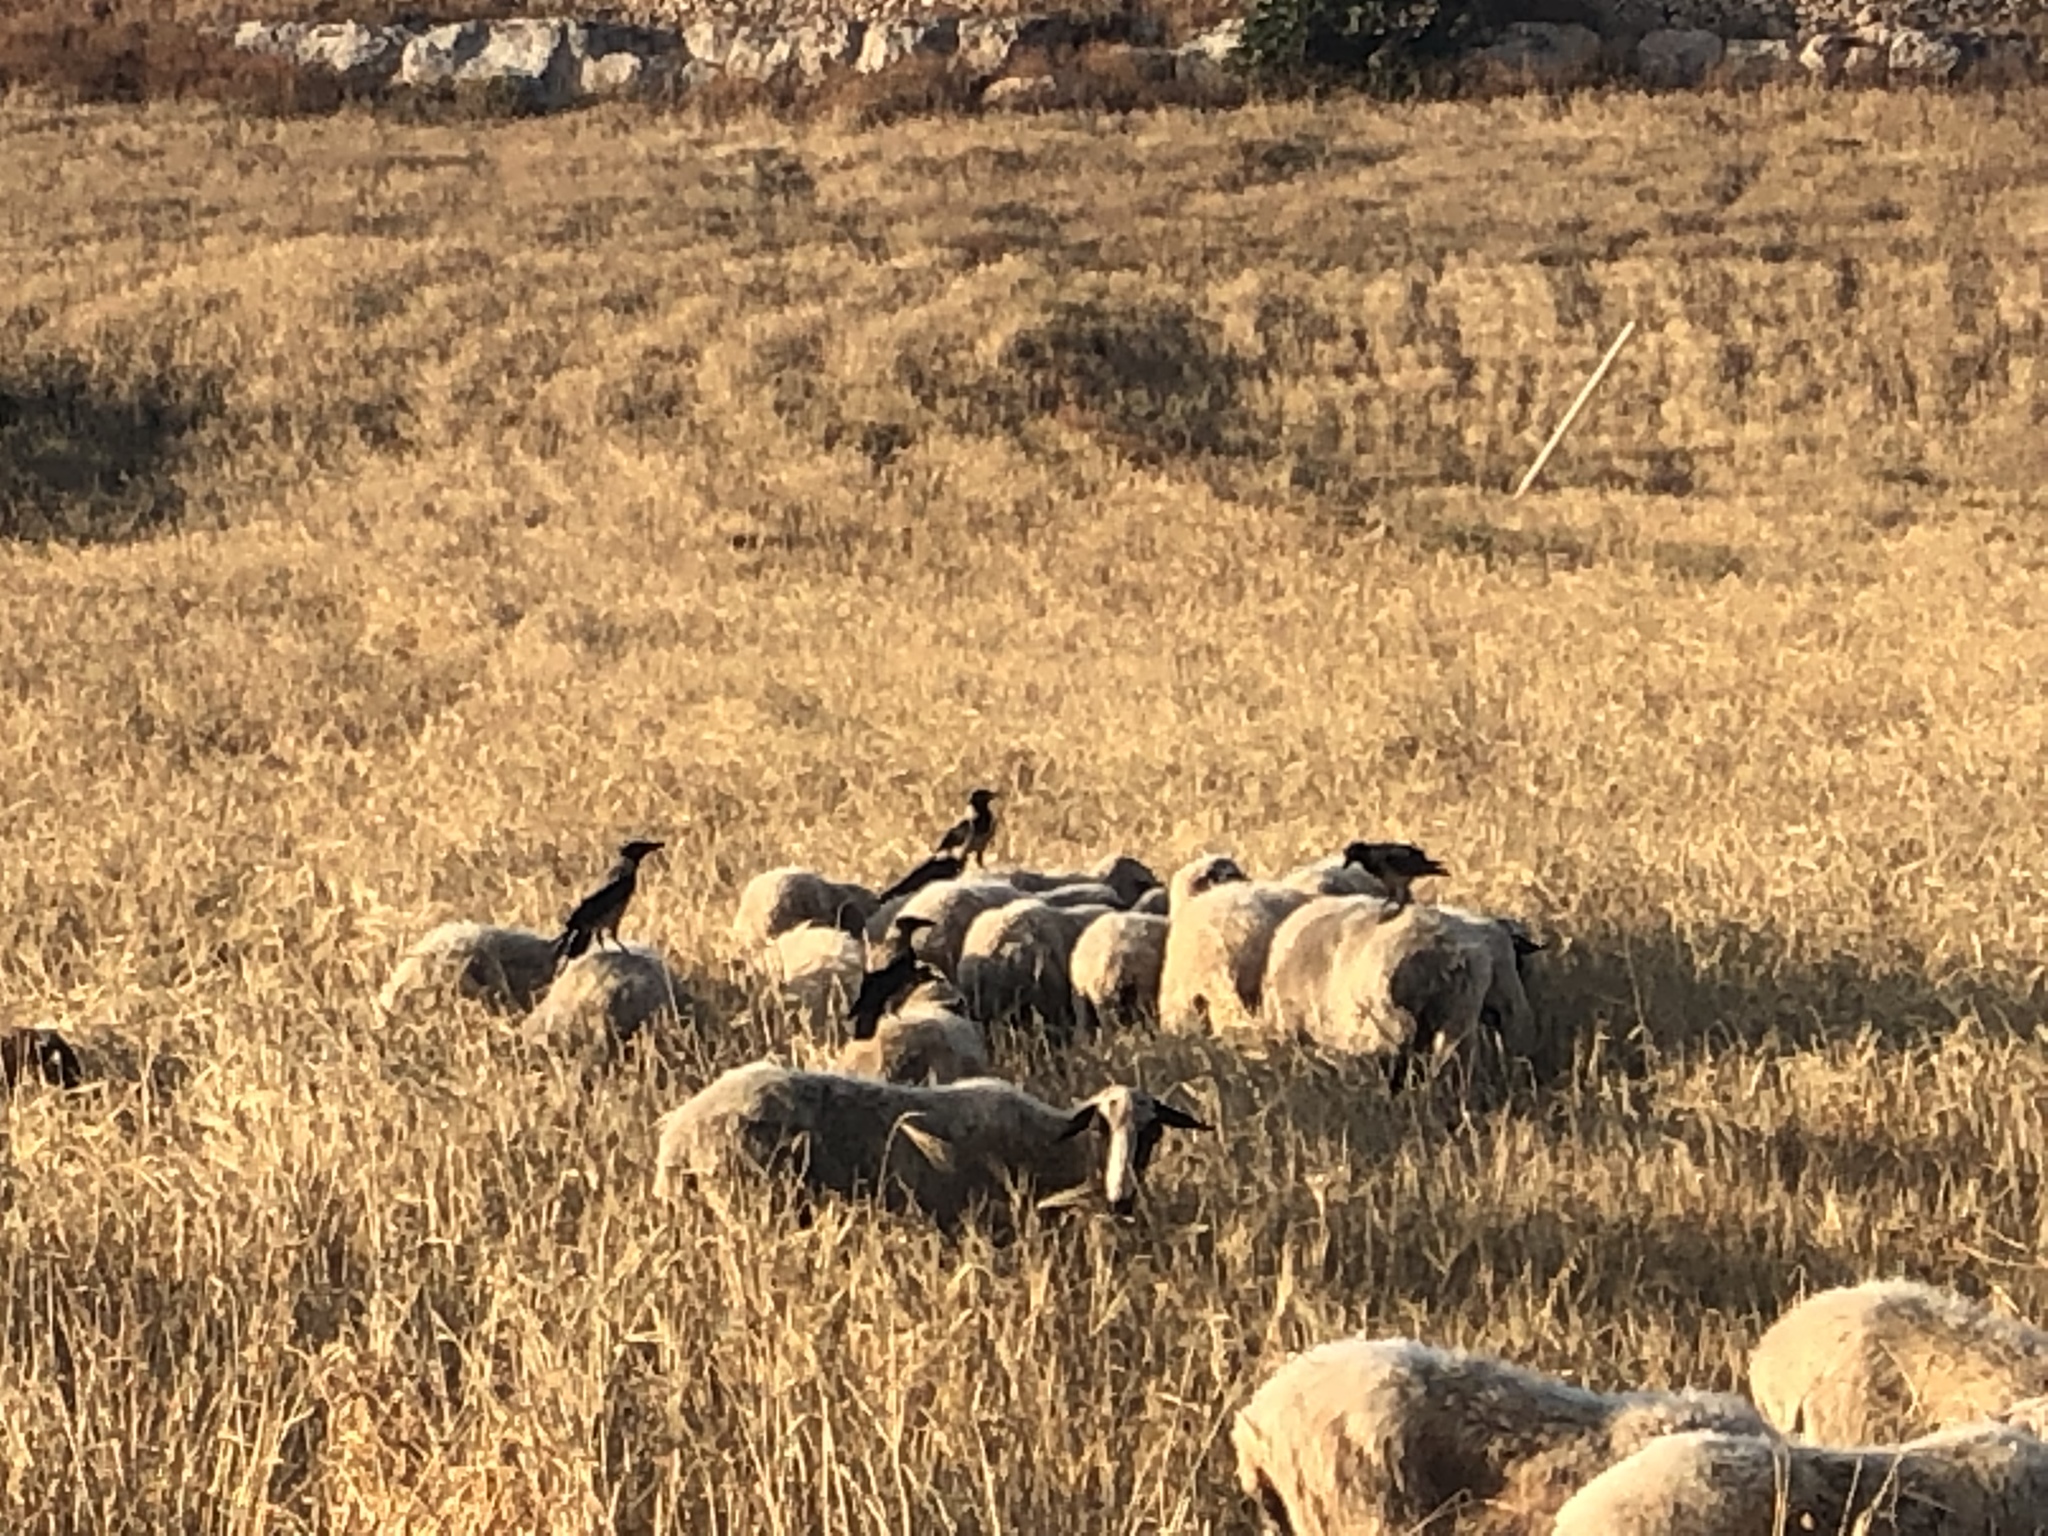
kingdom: Animalia
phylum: Chordata
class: Aves
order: Passeriformes
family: Corvidae
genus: Corvus
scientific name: Corvus cornix
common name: Hooded crow
